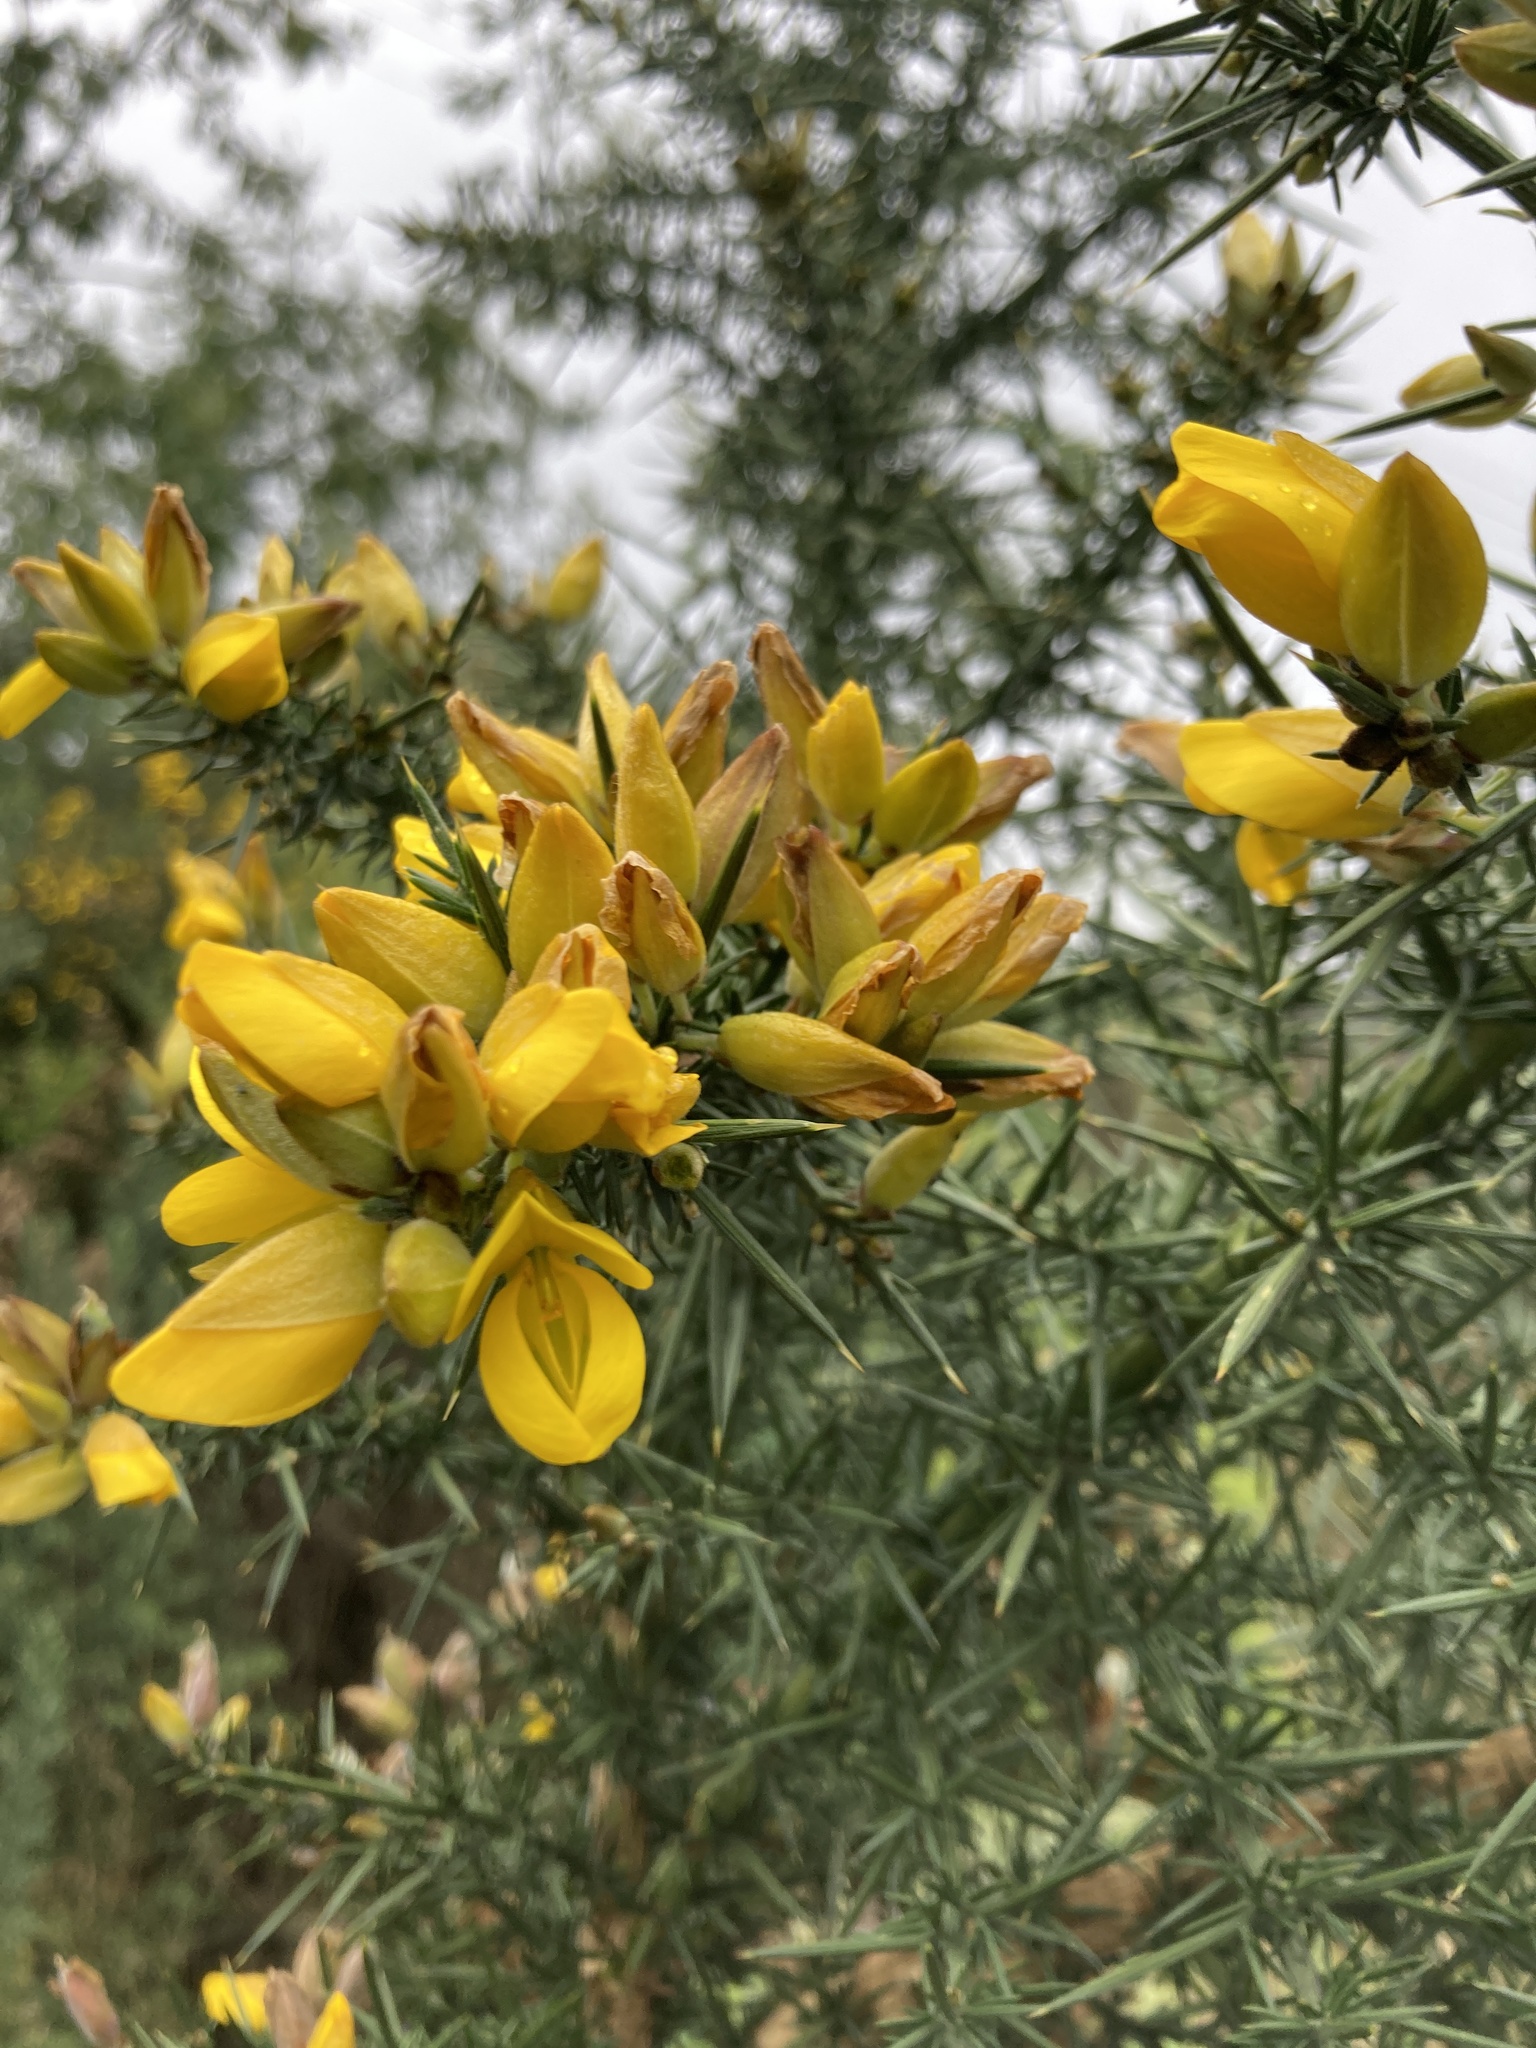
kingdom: Plantae
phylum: Tracheophyta
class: Magnoliopsida
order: Fabales
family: Fabaceae
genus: Ulex
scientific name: Ulex europaeus
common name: Common gorse
